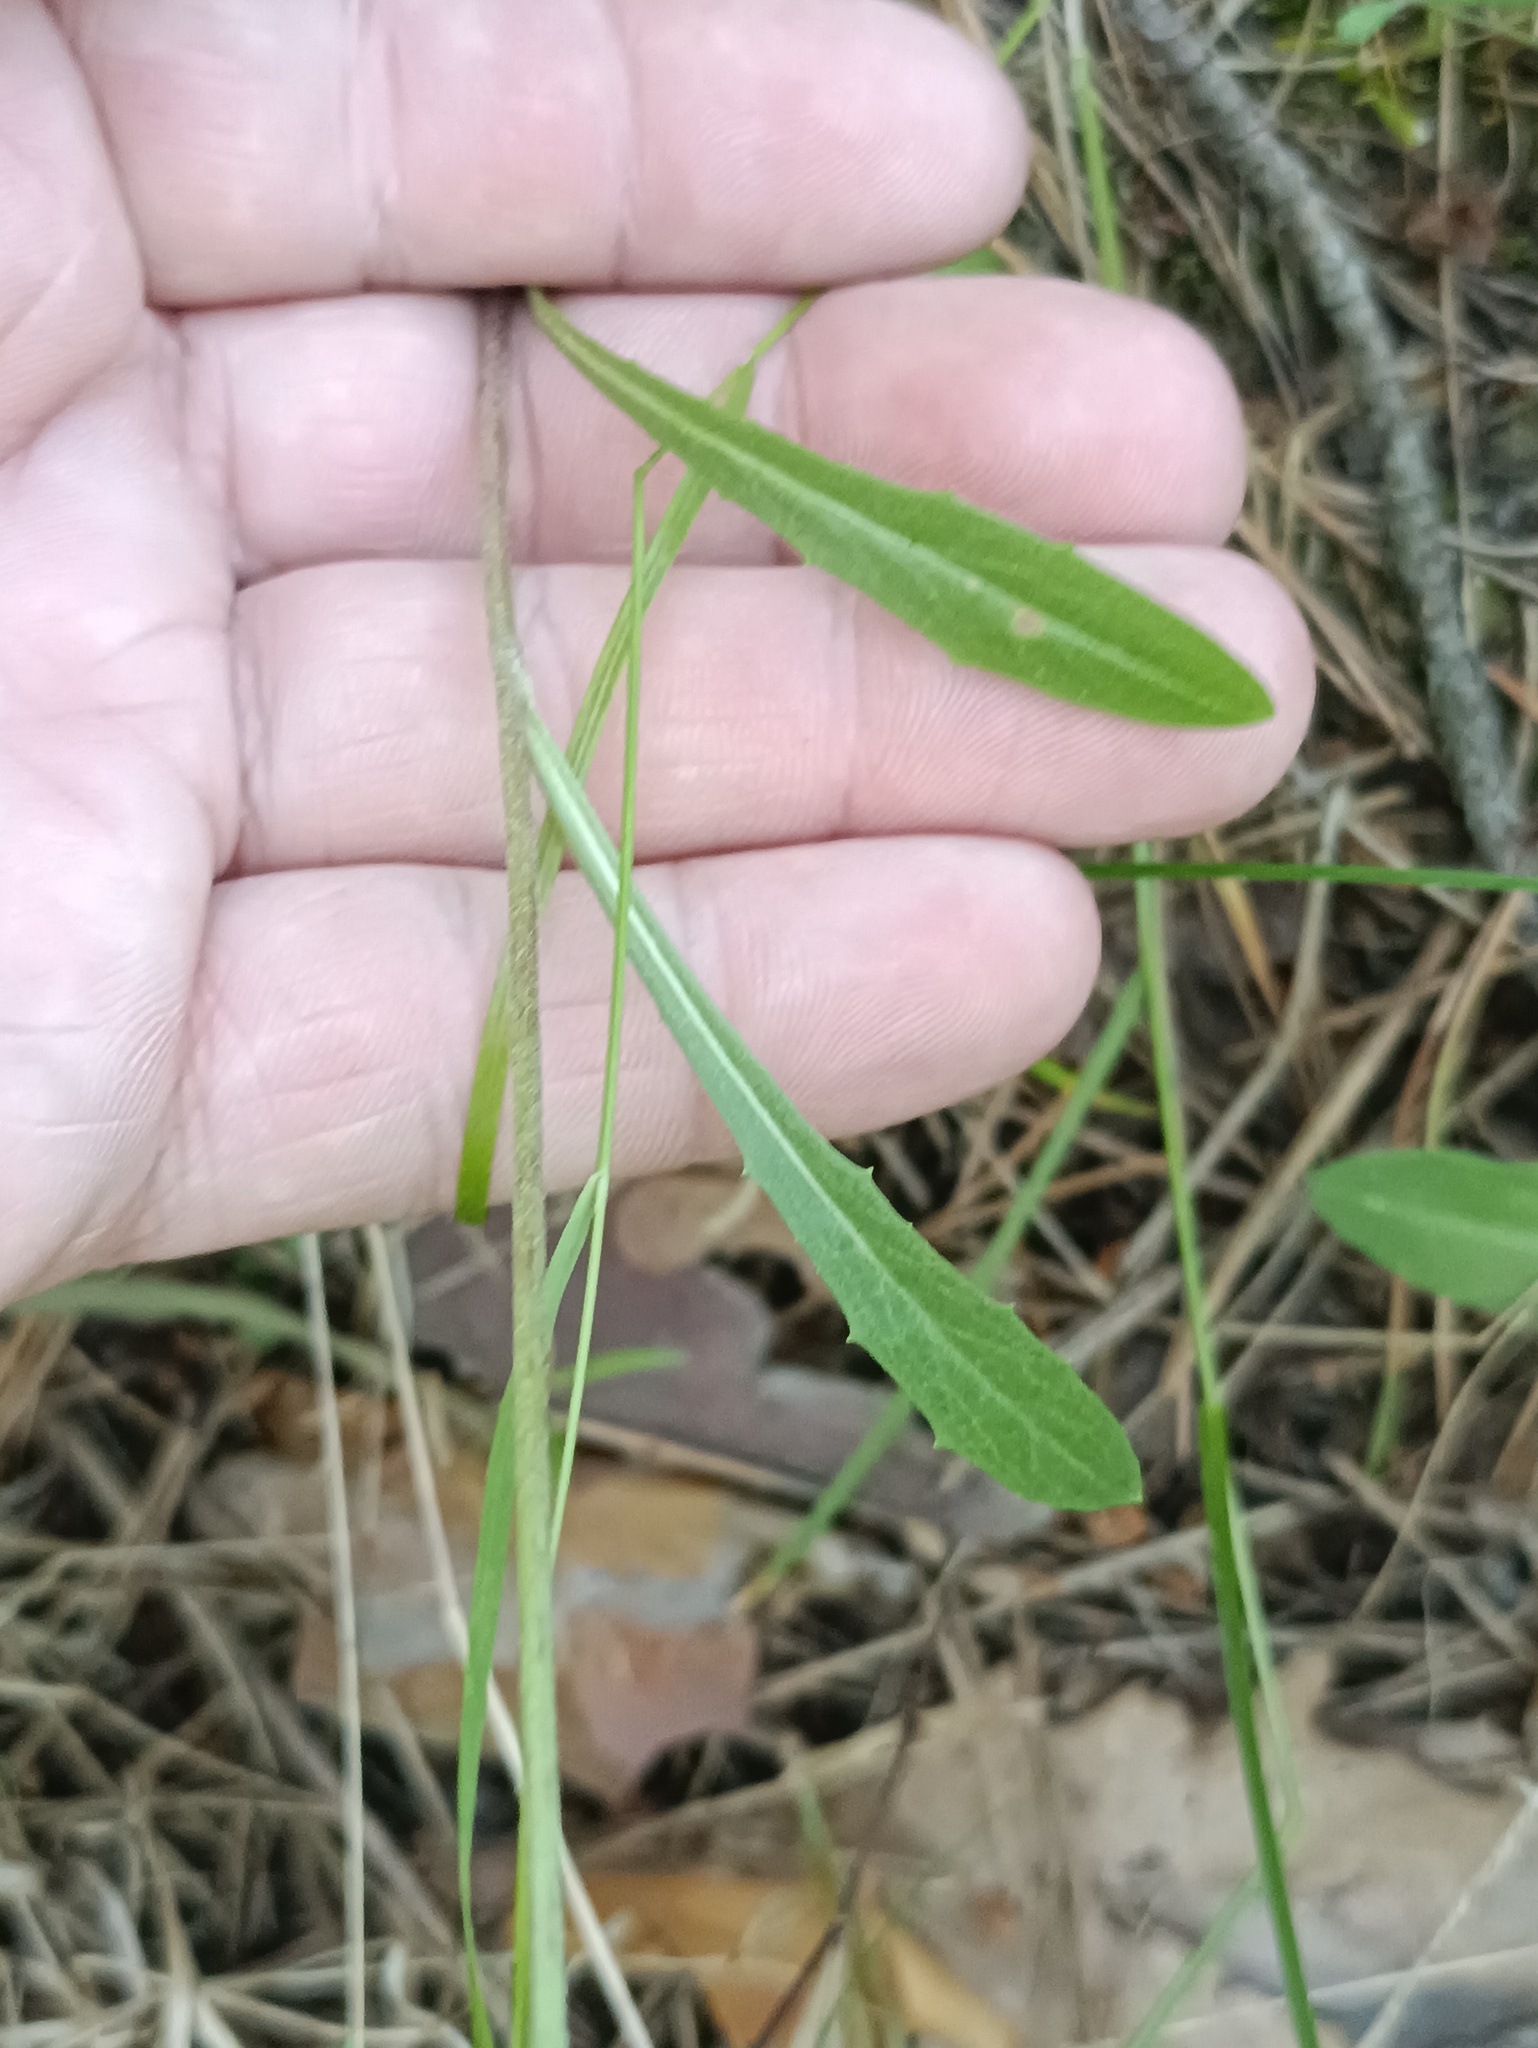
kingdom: Plantae
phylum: Tracheophyta
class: Magnoliopsida
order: Asterales
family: Asteraceae
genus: Crepis
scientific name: Crepis tectorum
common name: Narrow-leaved hawk's-beard
